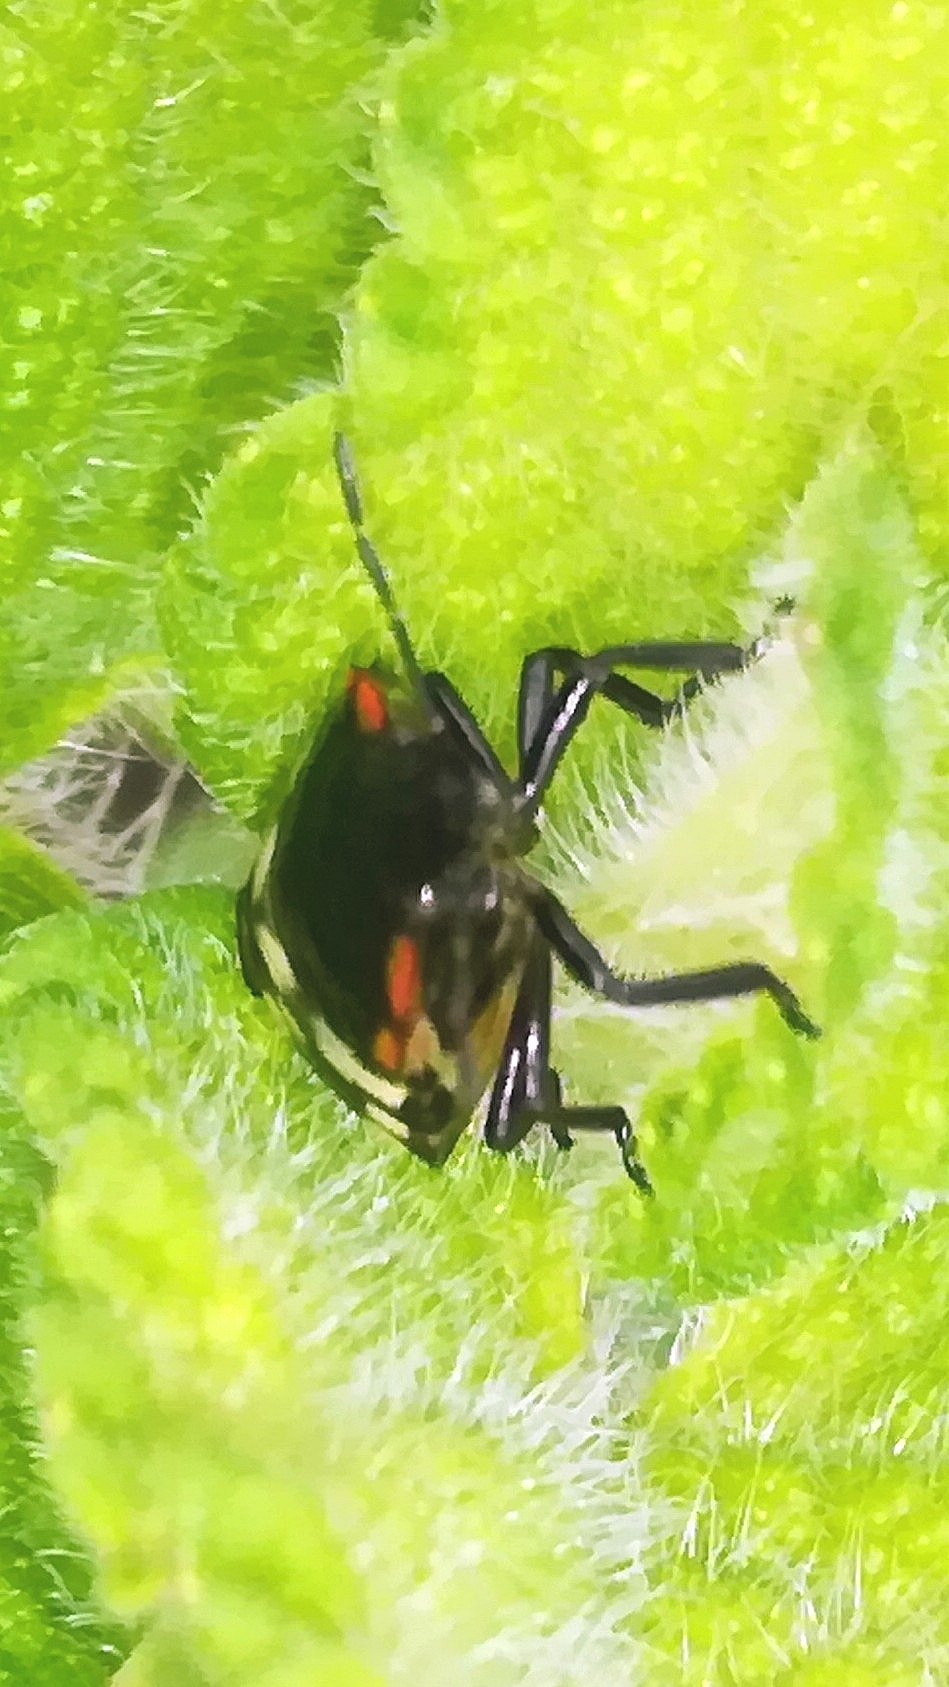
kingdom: Animalia
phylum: Arthropoda
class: Insecta
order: Hemiptera
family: Pentatomidae
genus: Nezara
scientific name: Nezara viridula
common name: Southern green stink bug
